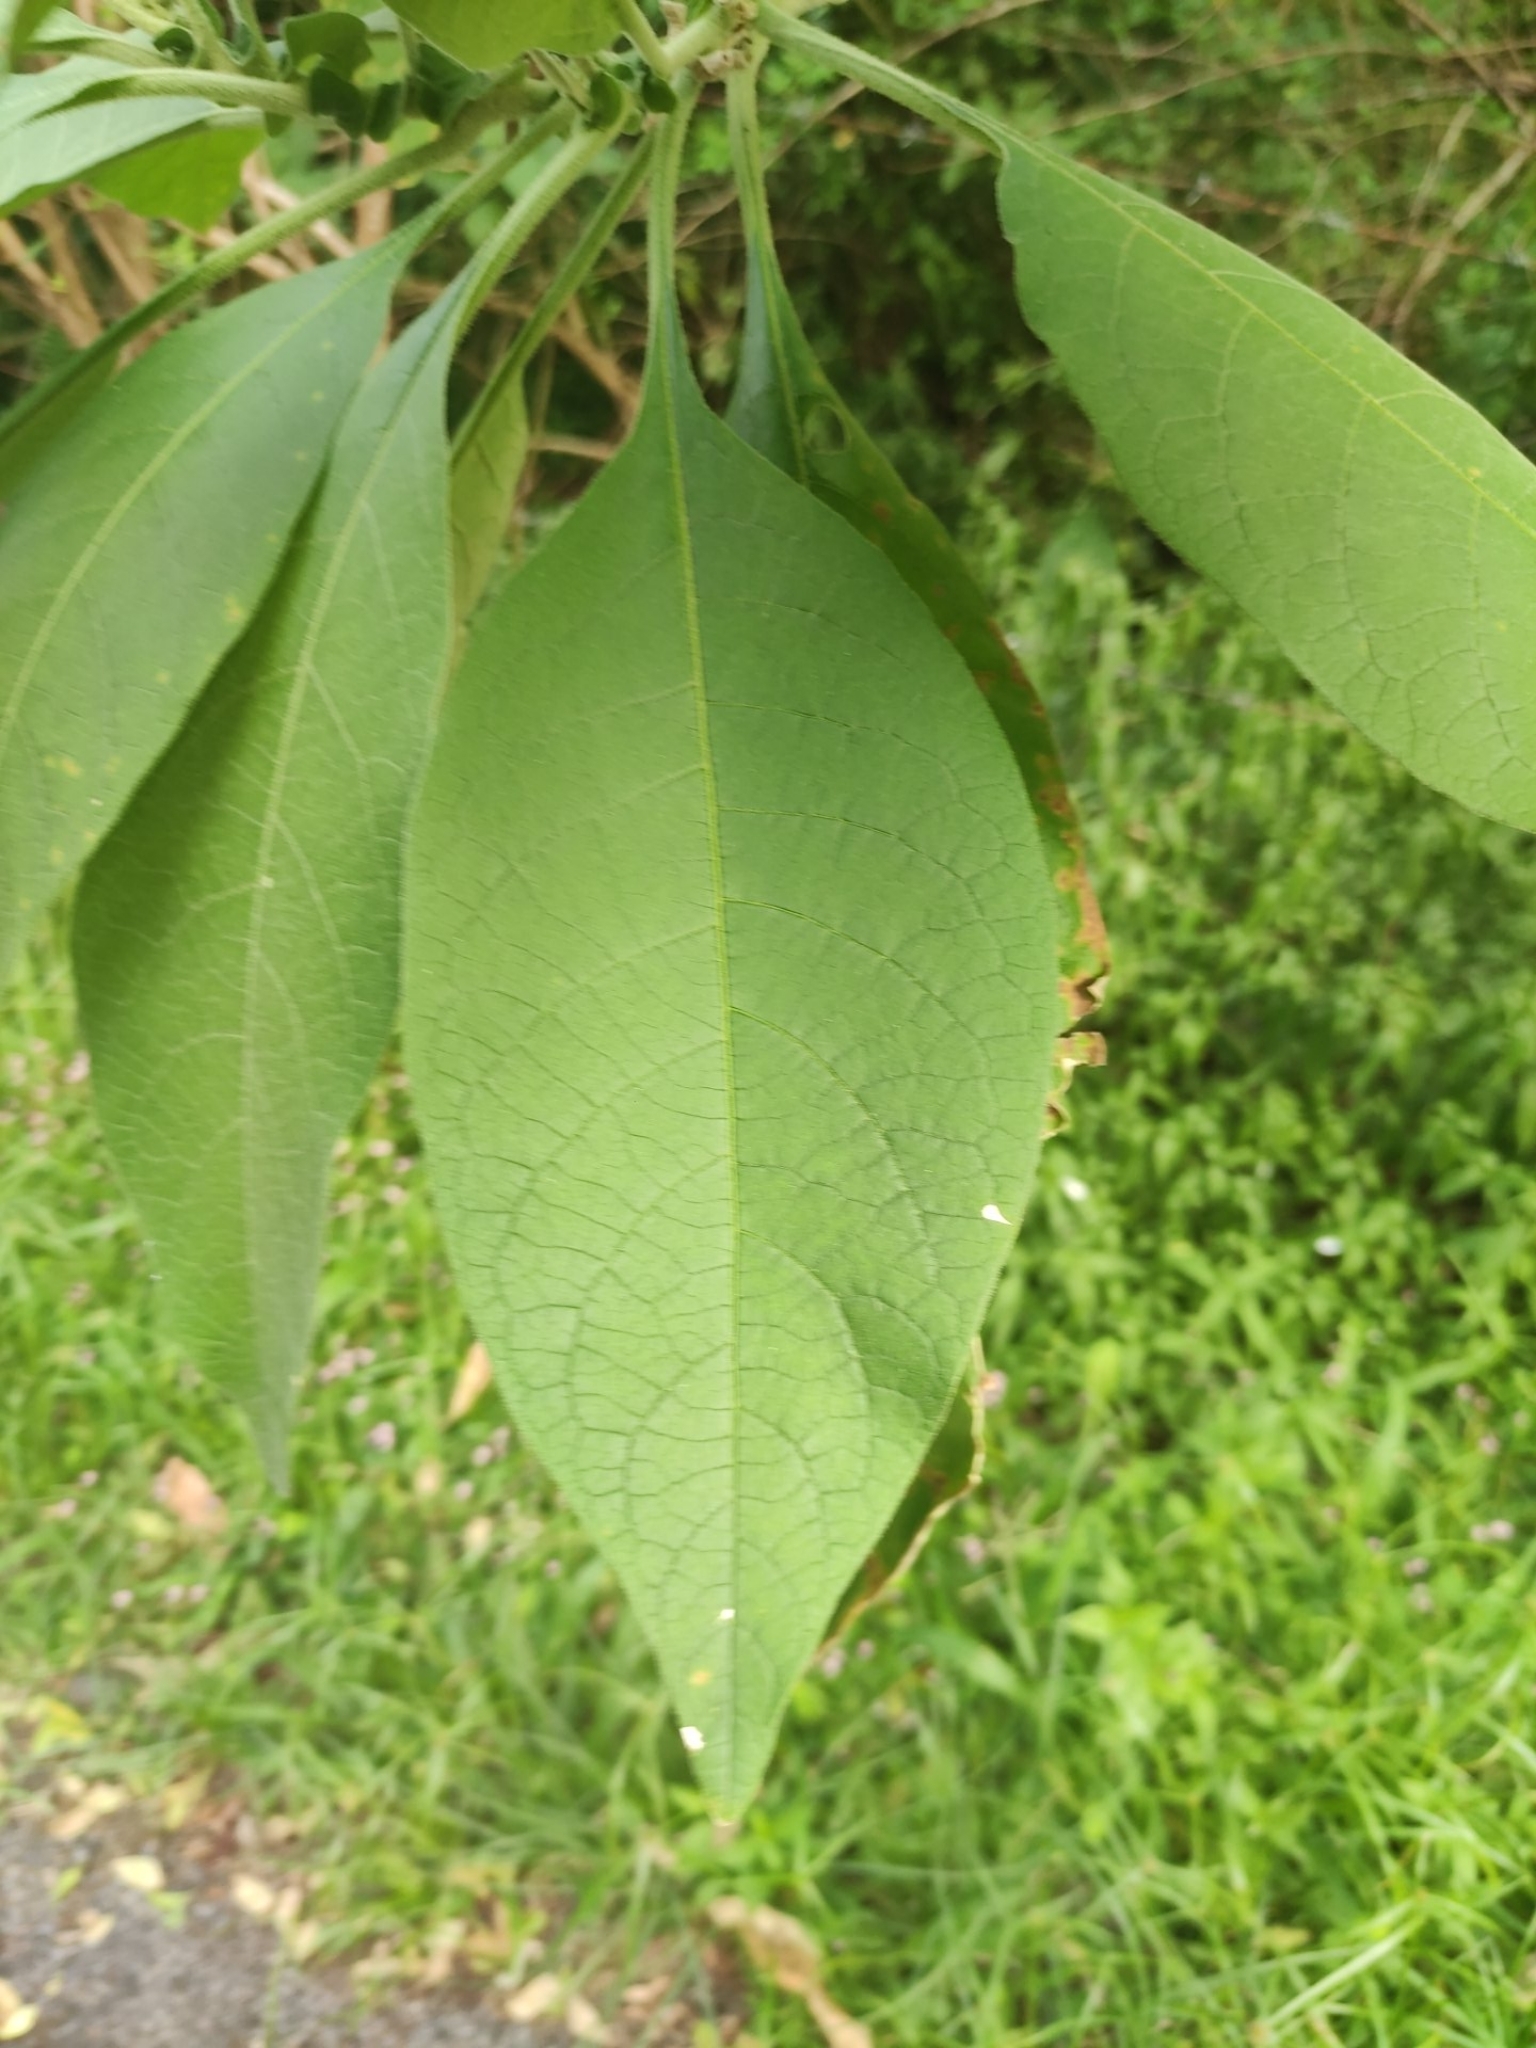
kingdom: Plantae
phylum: Tracheophyta
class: Magnoliopsida
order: Solanales
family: Solanaceae
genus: Solanum
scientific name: Solanum mauritianum
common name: Earleaf nightshade
